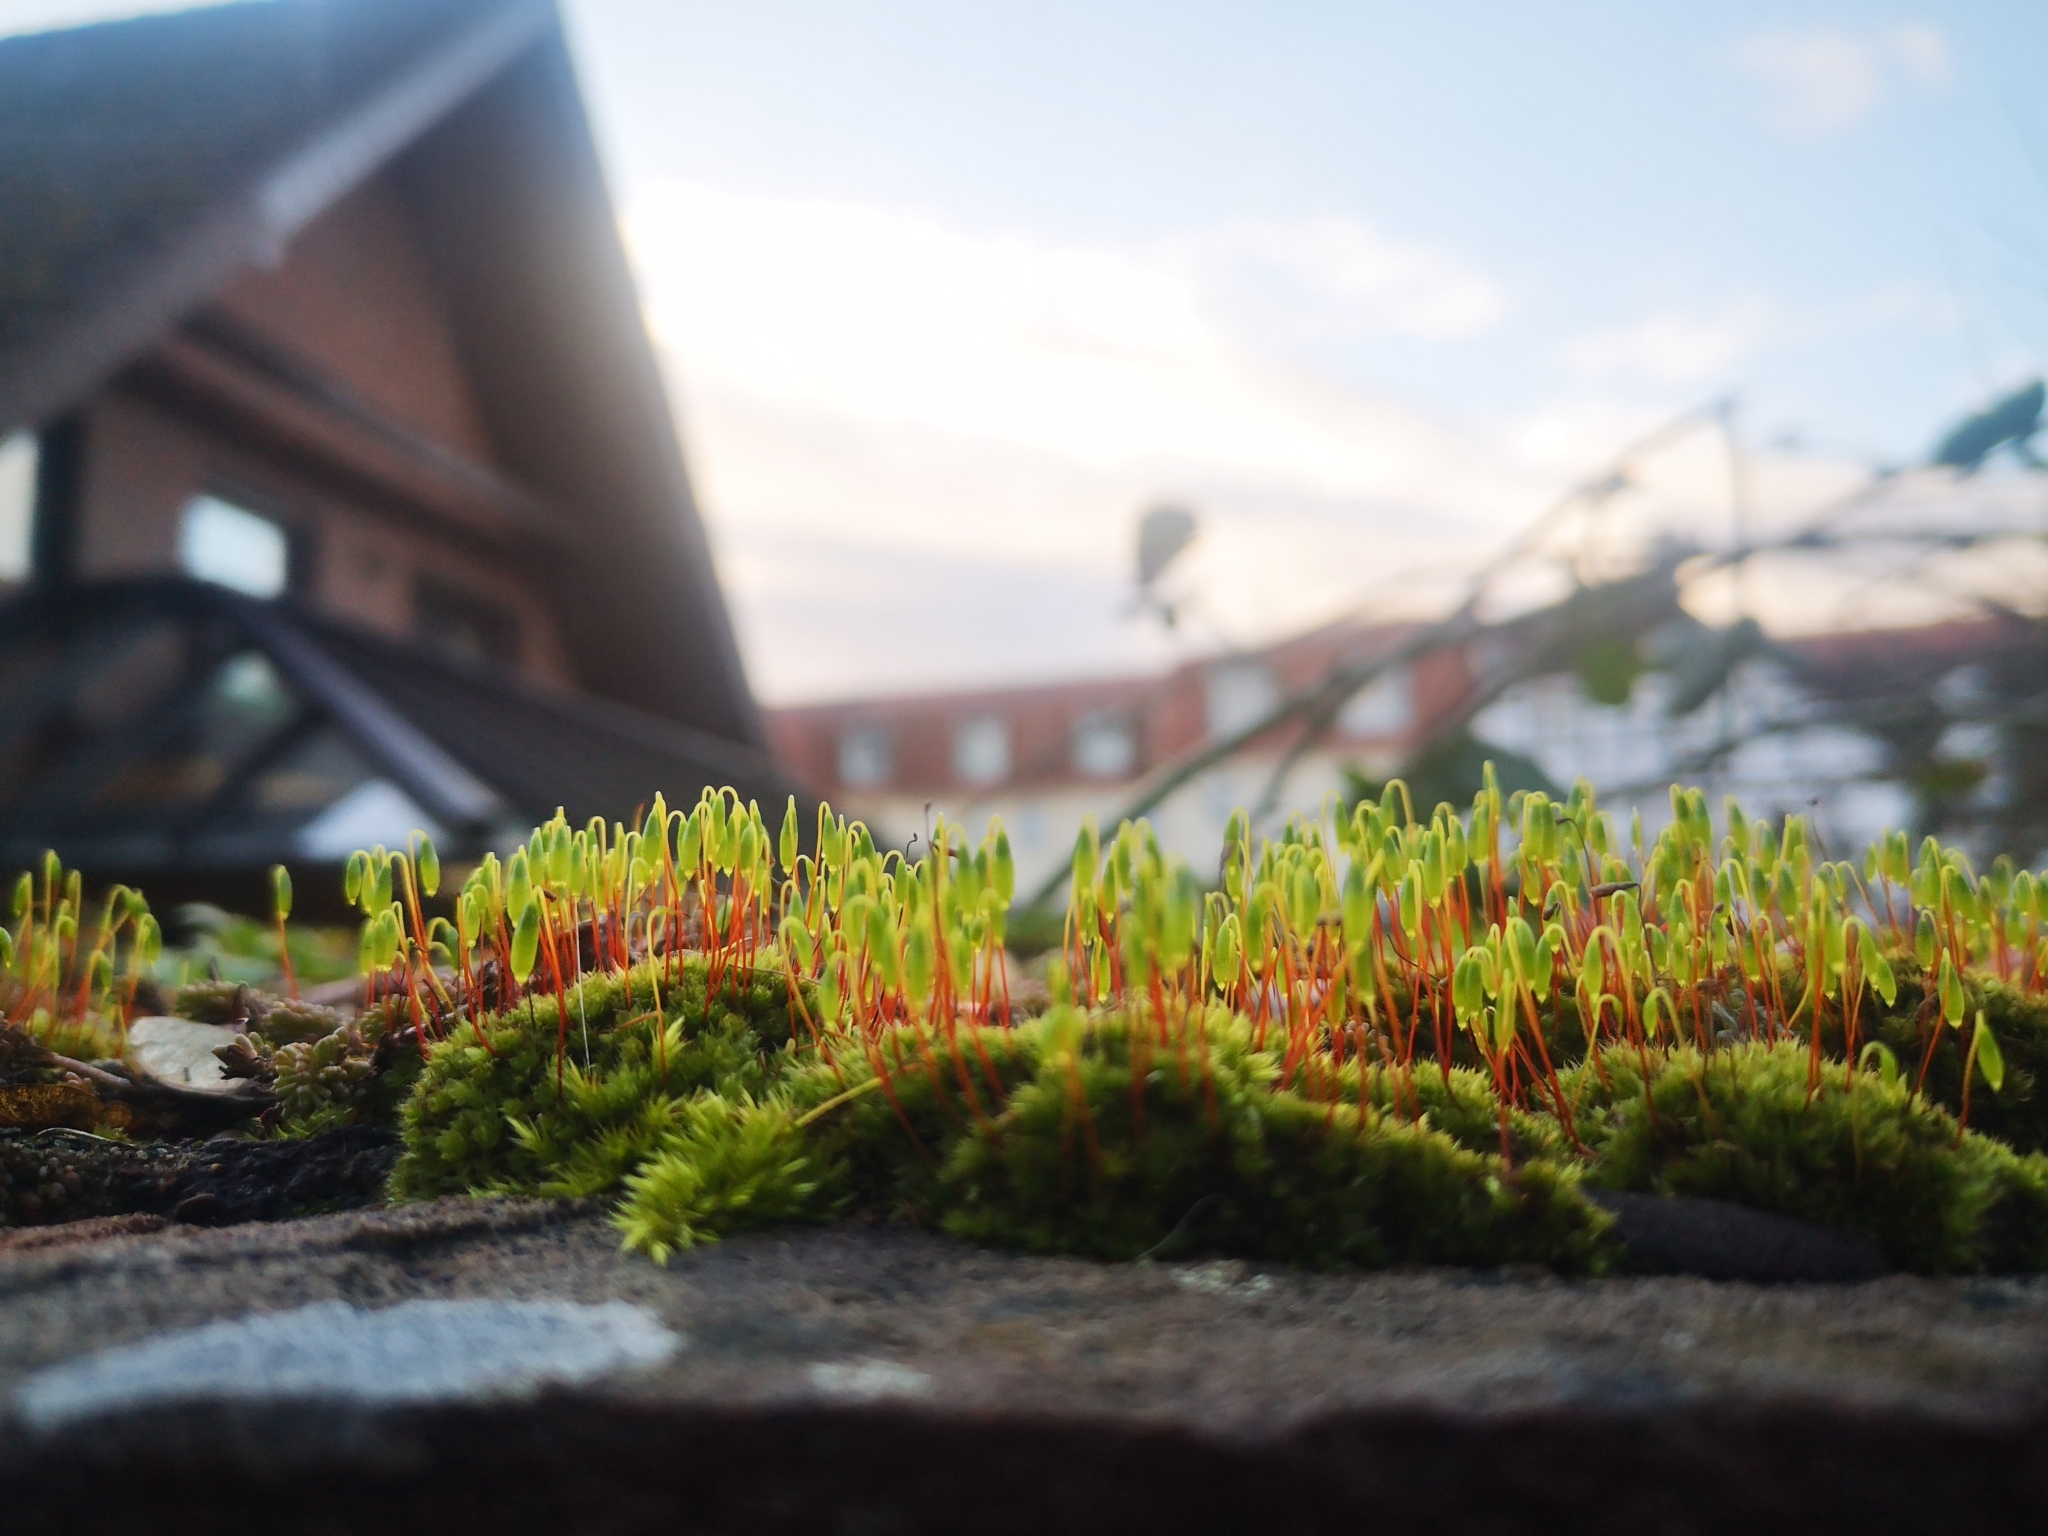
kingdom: Plantae
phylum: Bryophyta
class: Bryopsida
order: Bryales
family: Bryaceae
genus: Rosulabryum
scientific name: Rosulabryum capillare
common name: Capillary thread-moss
